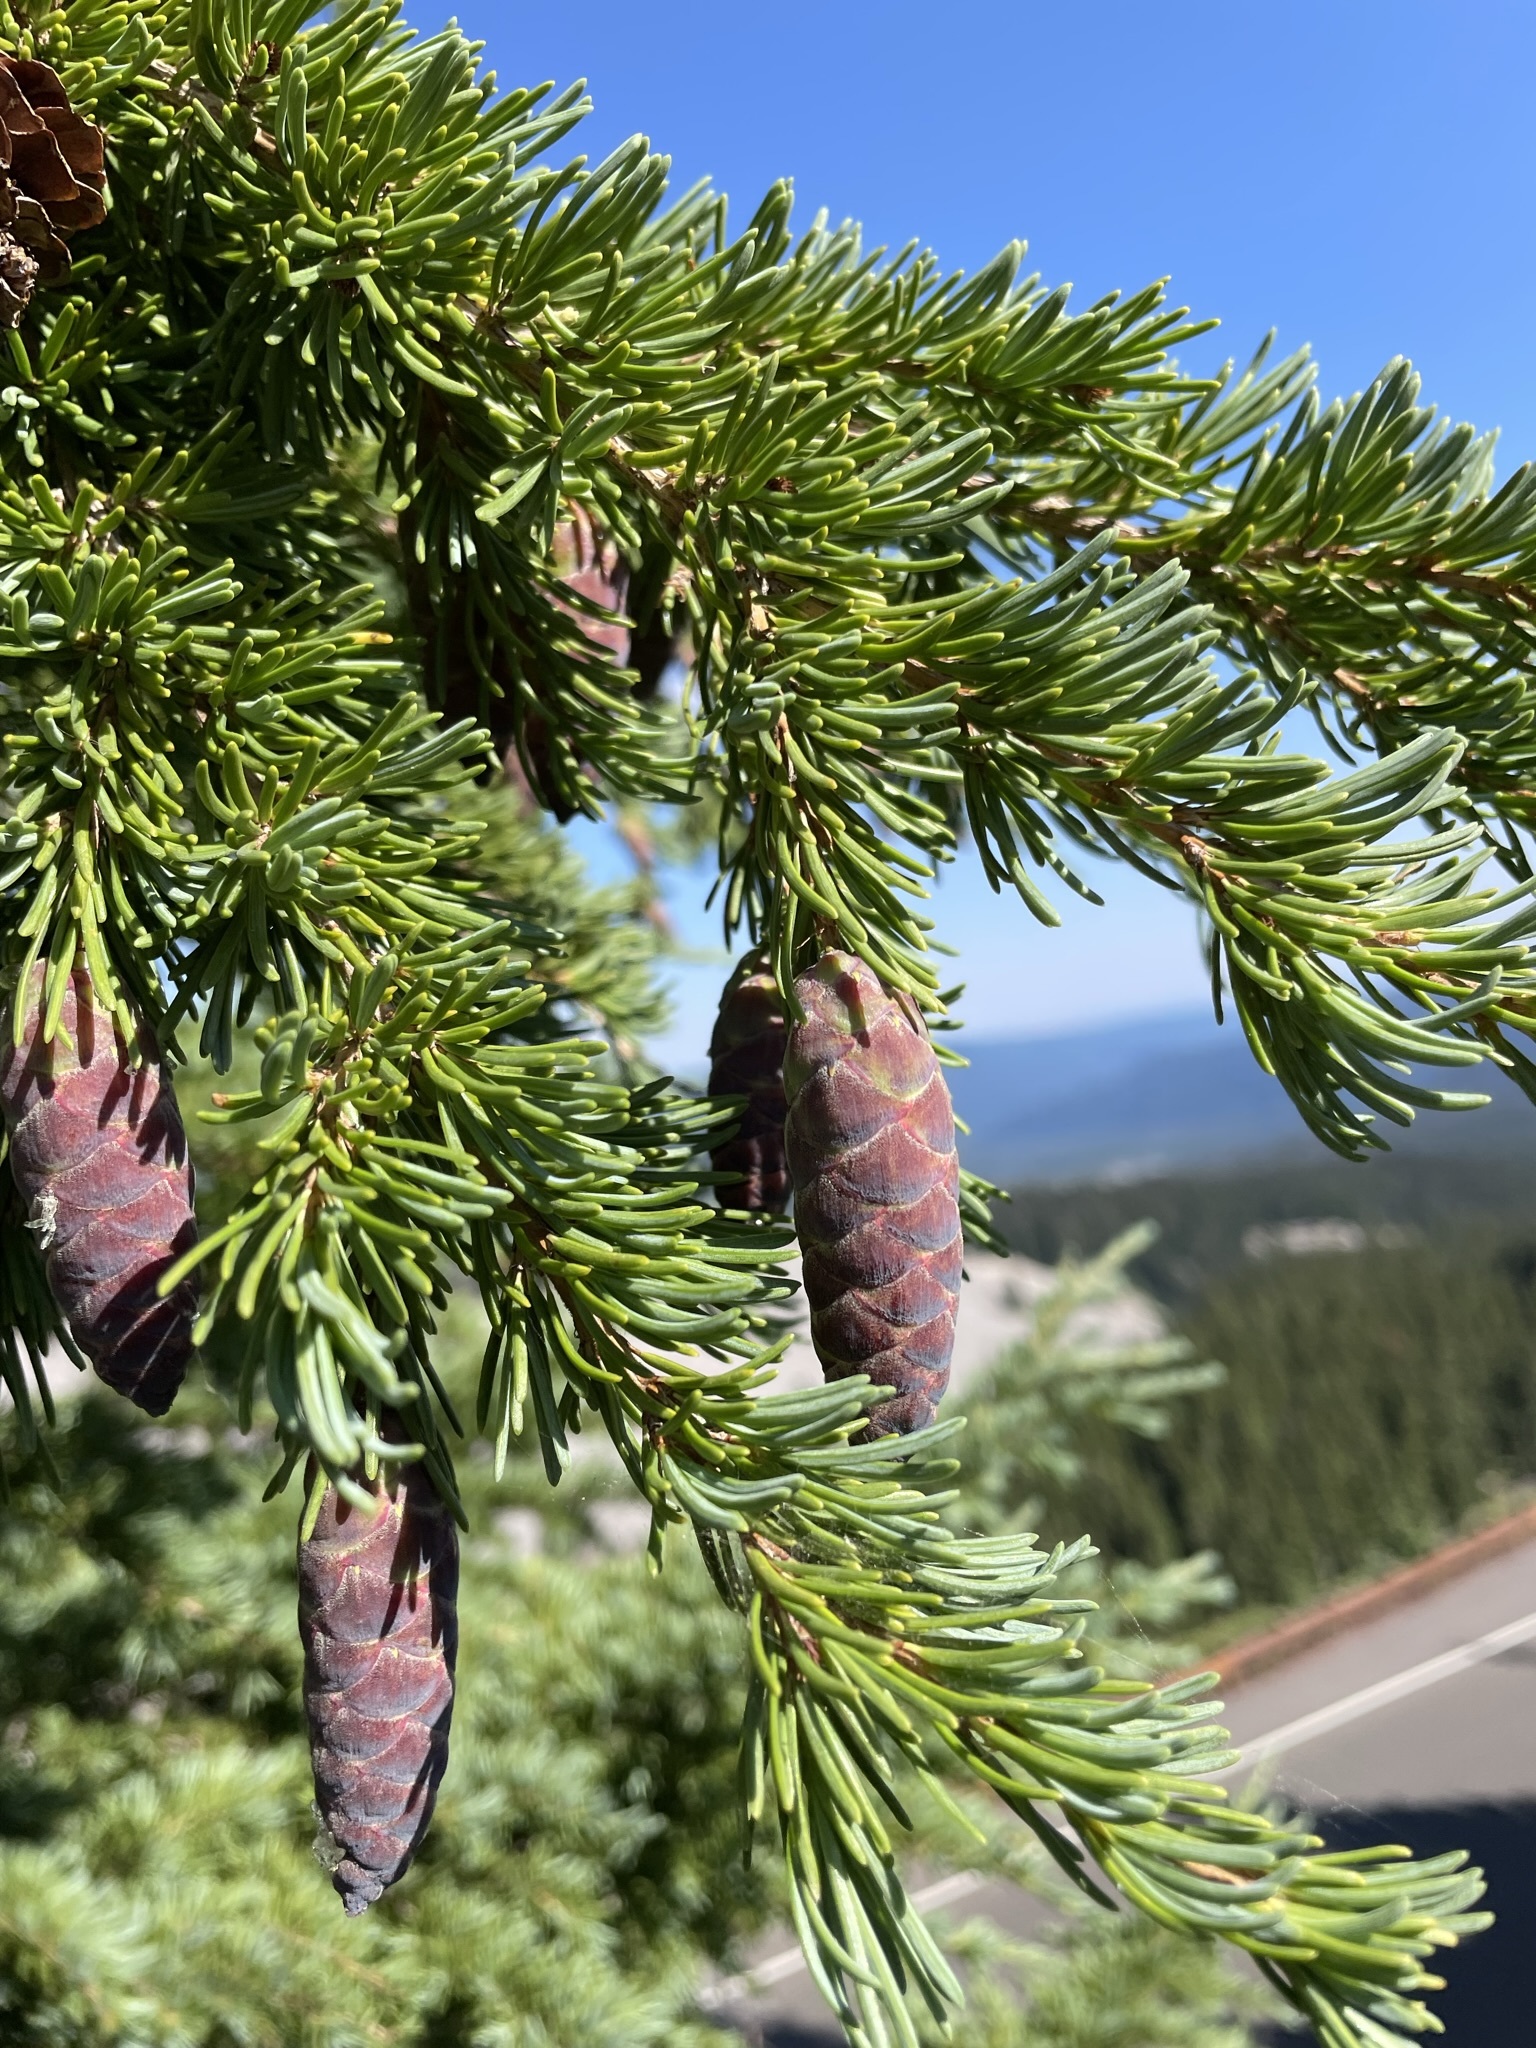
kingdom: Plantae
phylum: Tracheophyta
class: Pinopsida
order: Pinales
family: Pinaceae
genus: Tsuga
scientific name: Tsuga mertensiana
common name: Mountain hemlock
